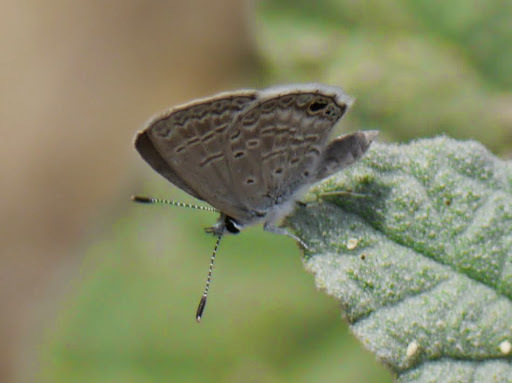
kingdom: Animalia
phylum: Arthropoda
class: Insecta
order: Lepidoptera
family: Lycaenidae
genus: Hemiargus
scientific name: Hemiargus ceraunus
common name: Ceraunus blue
